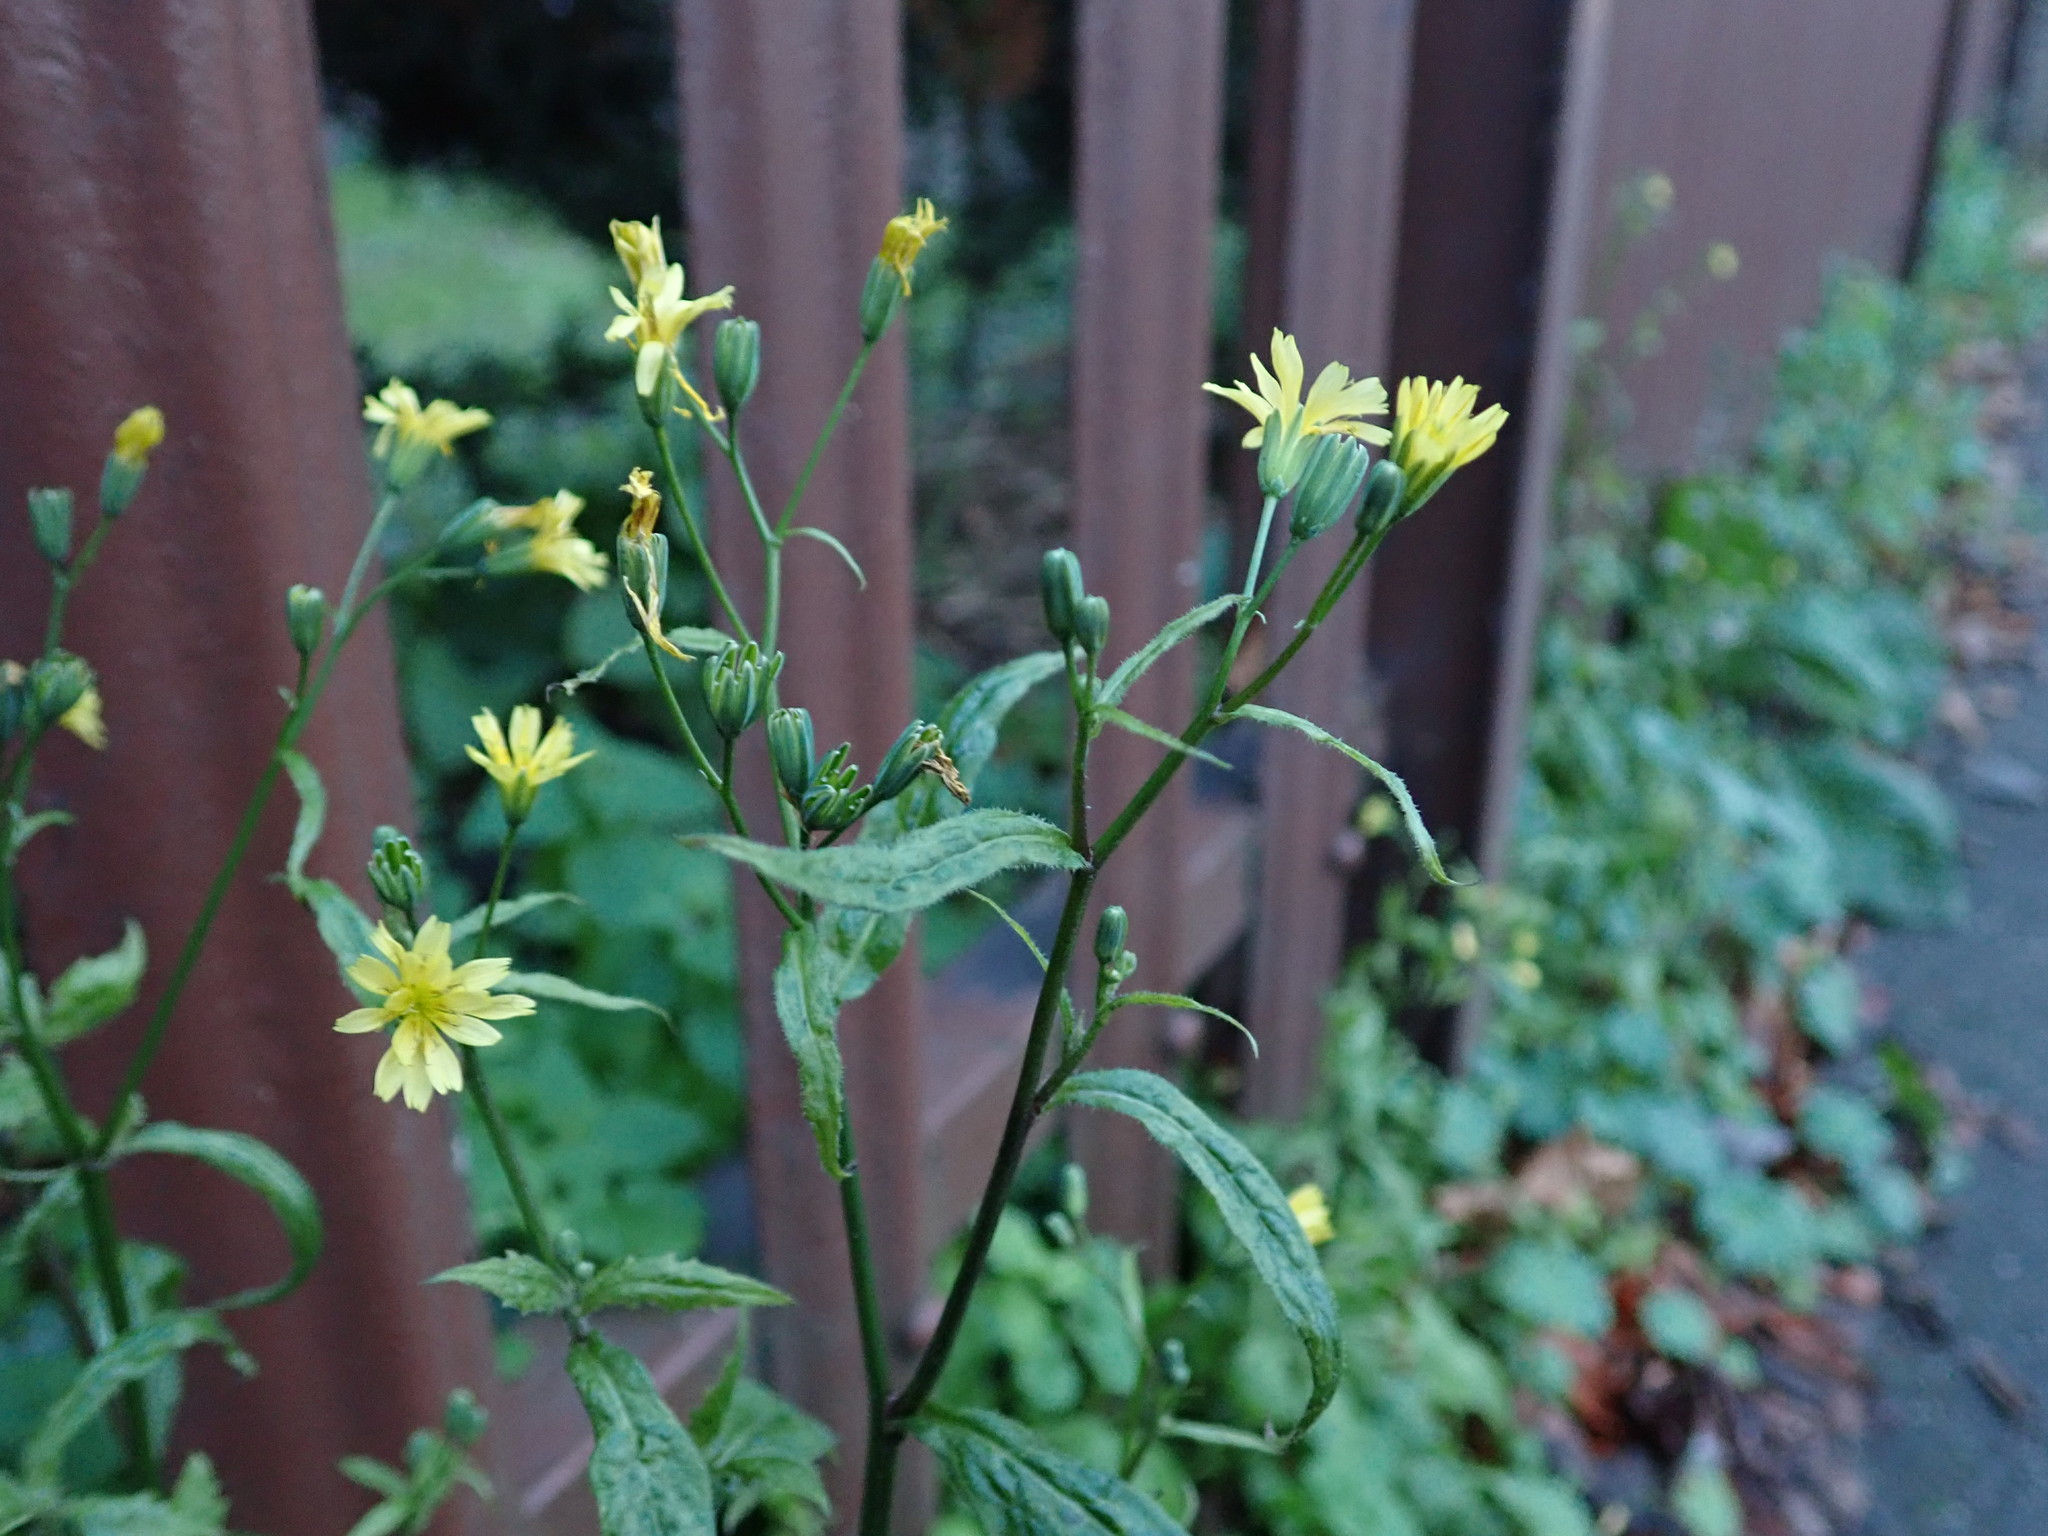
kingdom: Plantae
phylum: Tracheophyta
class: Magnoliopsida
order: Asterales
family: Asteraceae
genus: Lapsana
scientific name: Lapsana communis
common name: Nipplewort
